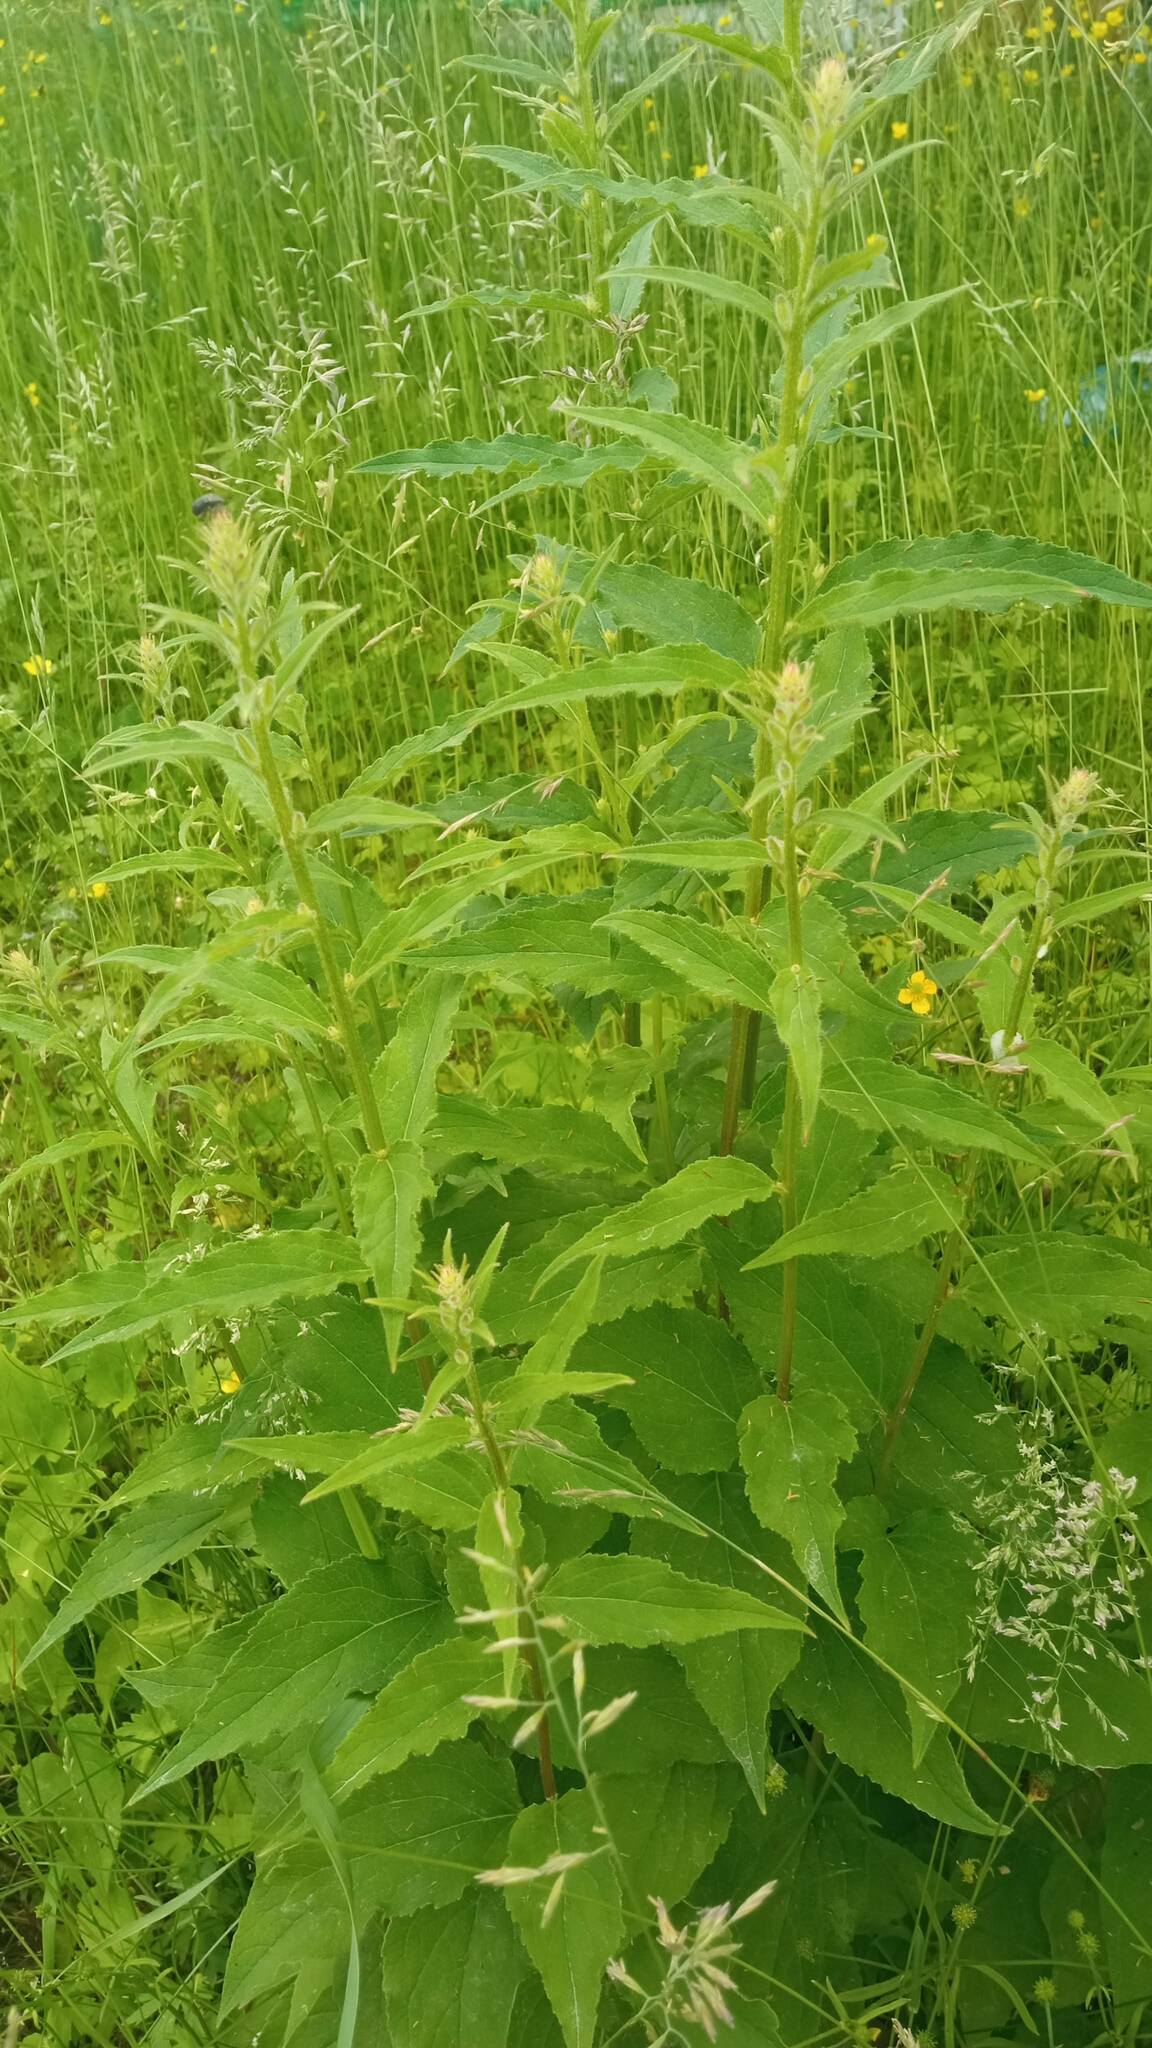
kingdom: Plantae
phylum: Tracheophyta
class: Magnoliopsida
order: Asterales
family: Campanulaceae
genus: Campanula
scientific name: Campanula rapunculoides
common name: Creeping bellflower
